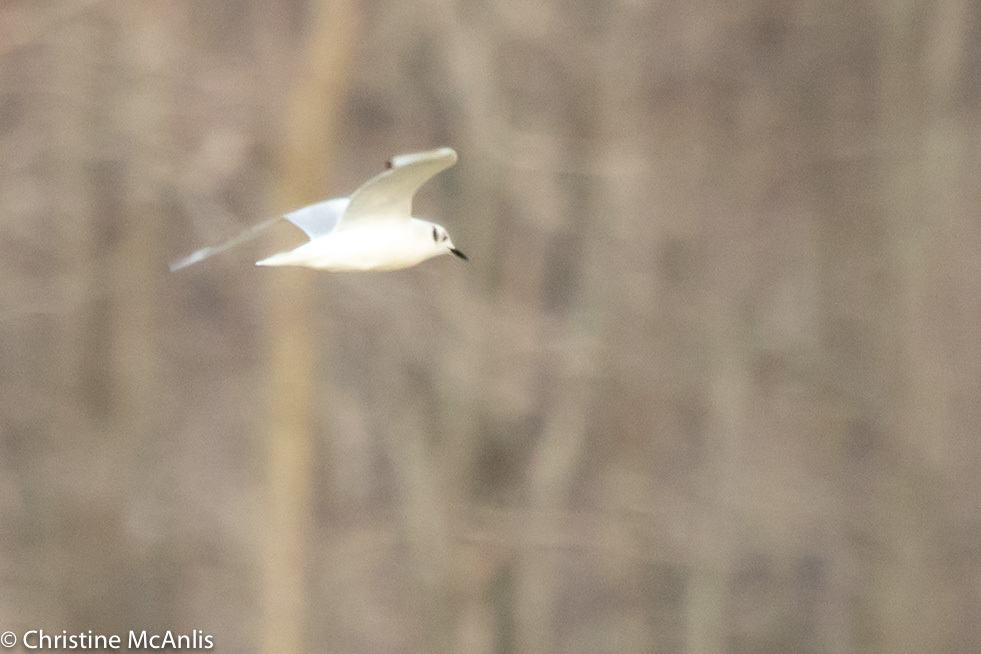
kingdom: Animalia
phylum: Chordata
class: Aves
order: Charadriiformes
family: Laridae
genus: Chroicocephalus
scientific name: Chroicocephalus philadelphia
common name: Bonaparte's gull
